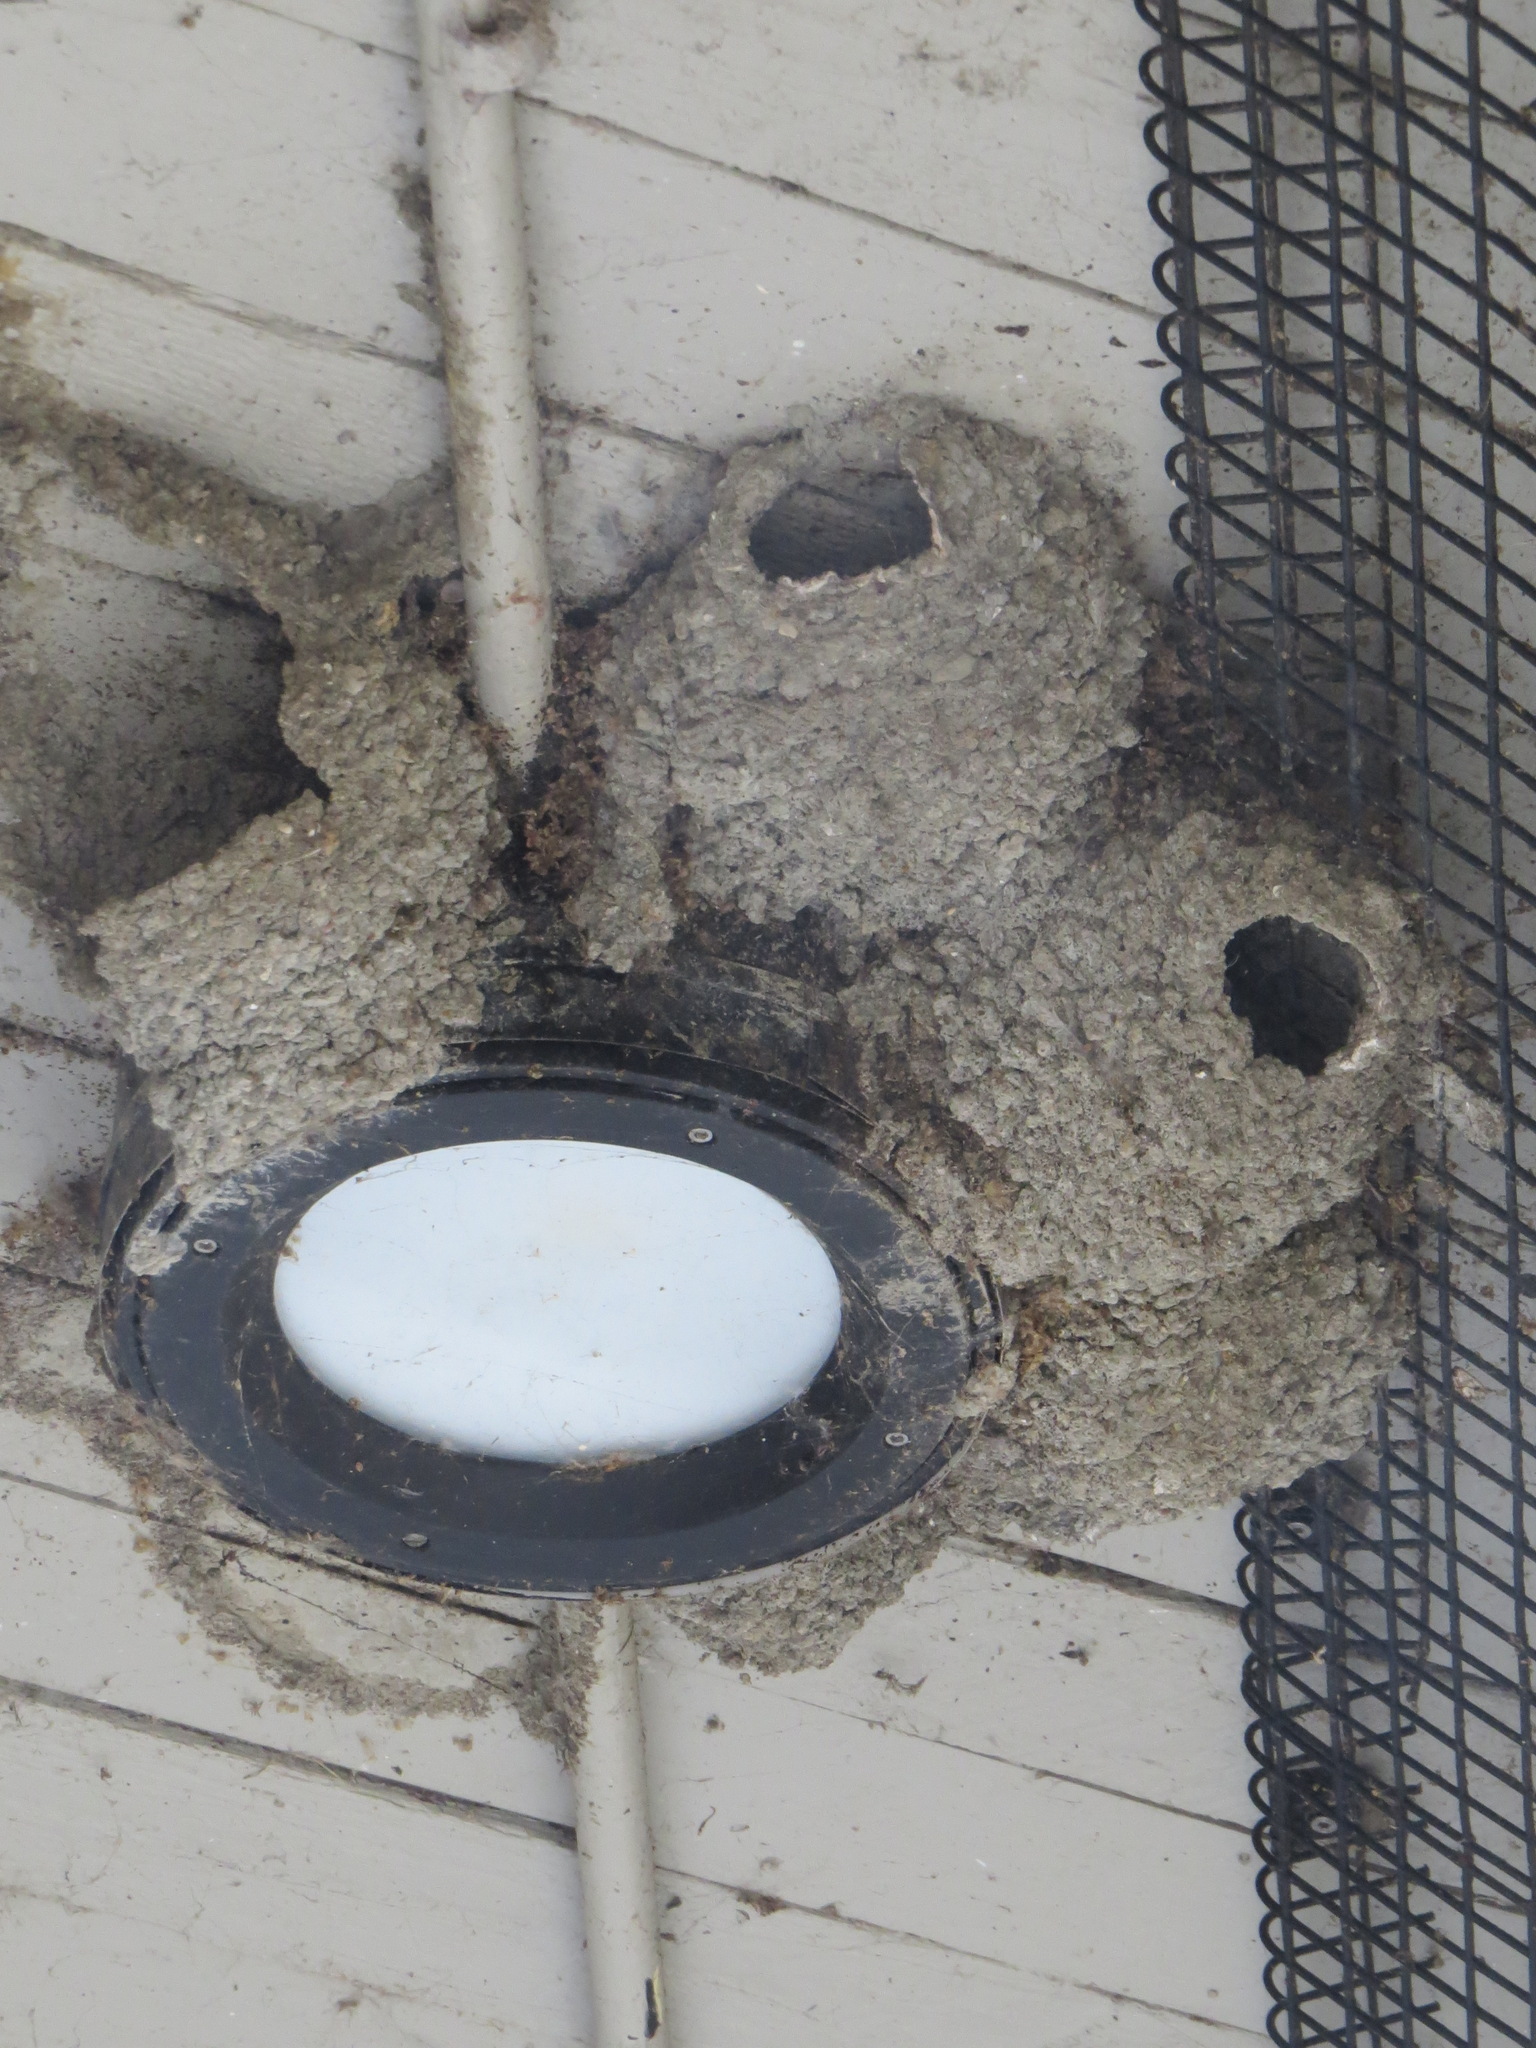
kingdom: Animalia
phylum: Chordata
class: Aves
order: Passeriformes
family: Hirundinidae
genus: Petrochelidon
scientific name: Petrochelidon pyrrhonota
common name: American cliff swallow
